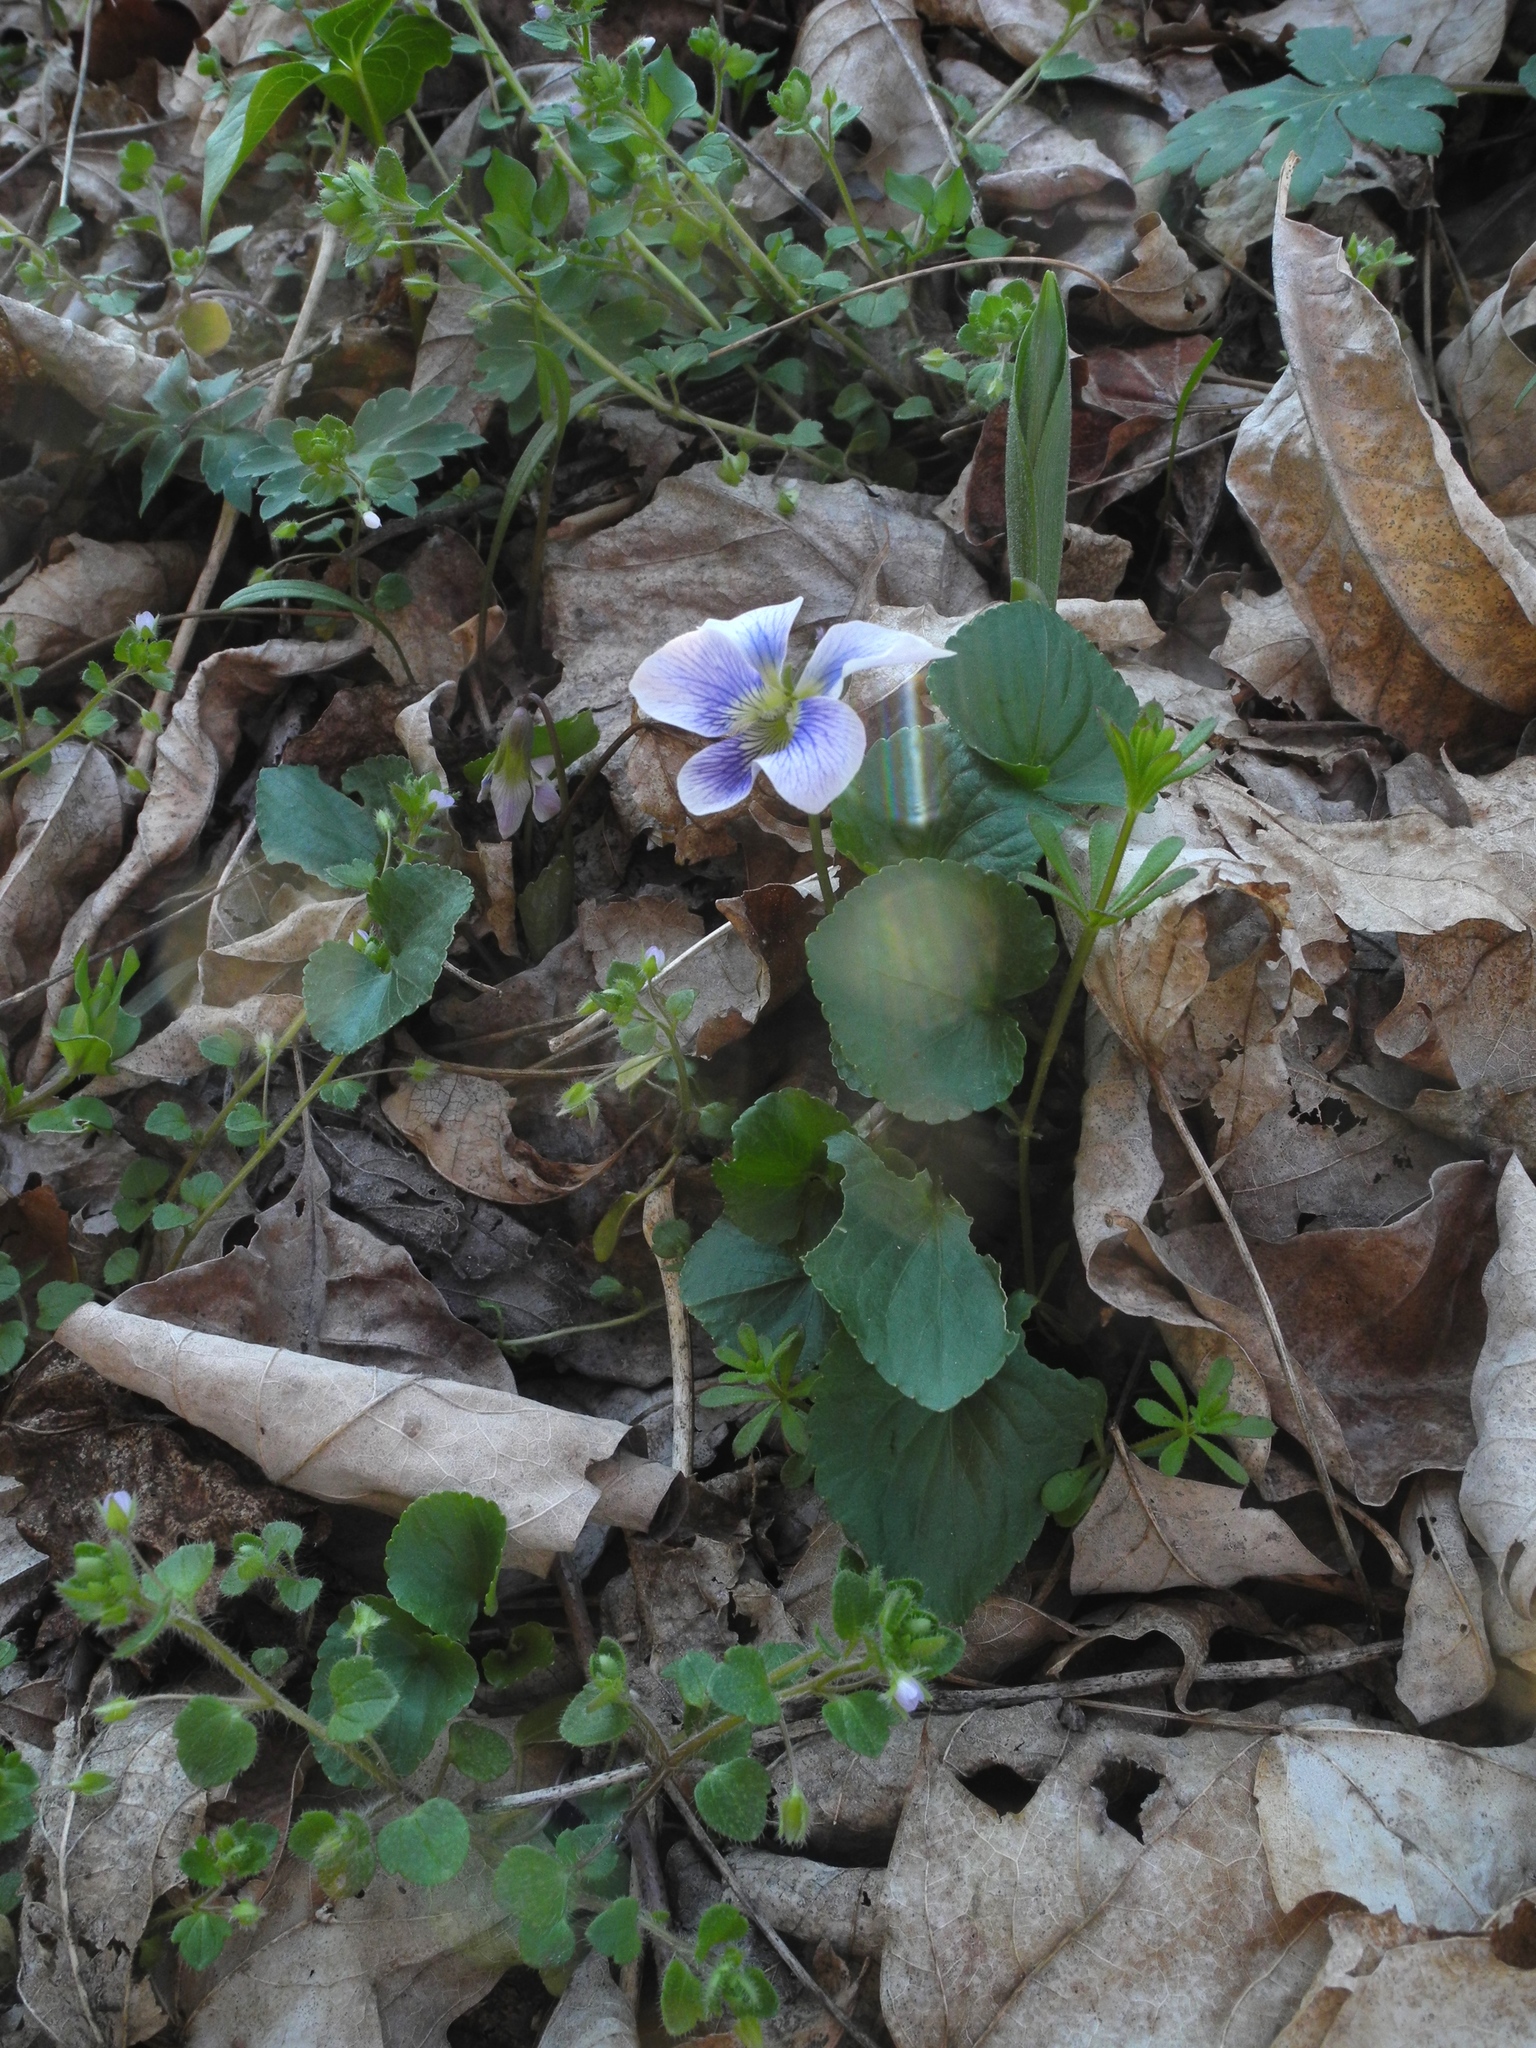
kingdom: Plantae
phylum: Tracheophyta
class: Magnoliopsida
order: Malpighiales
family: Violaceae
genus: Viola
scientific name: Viola sororia
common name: Dooryard violet
